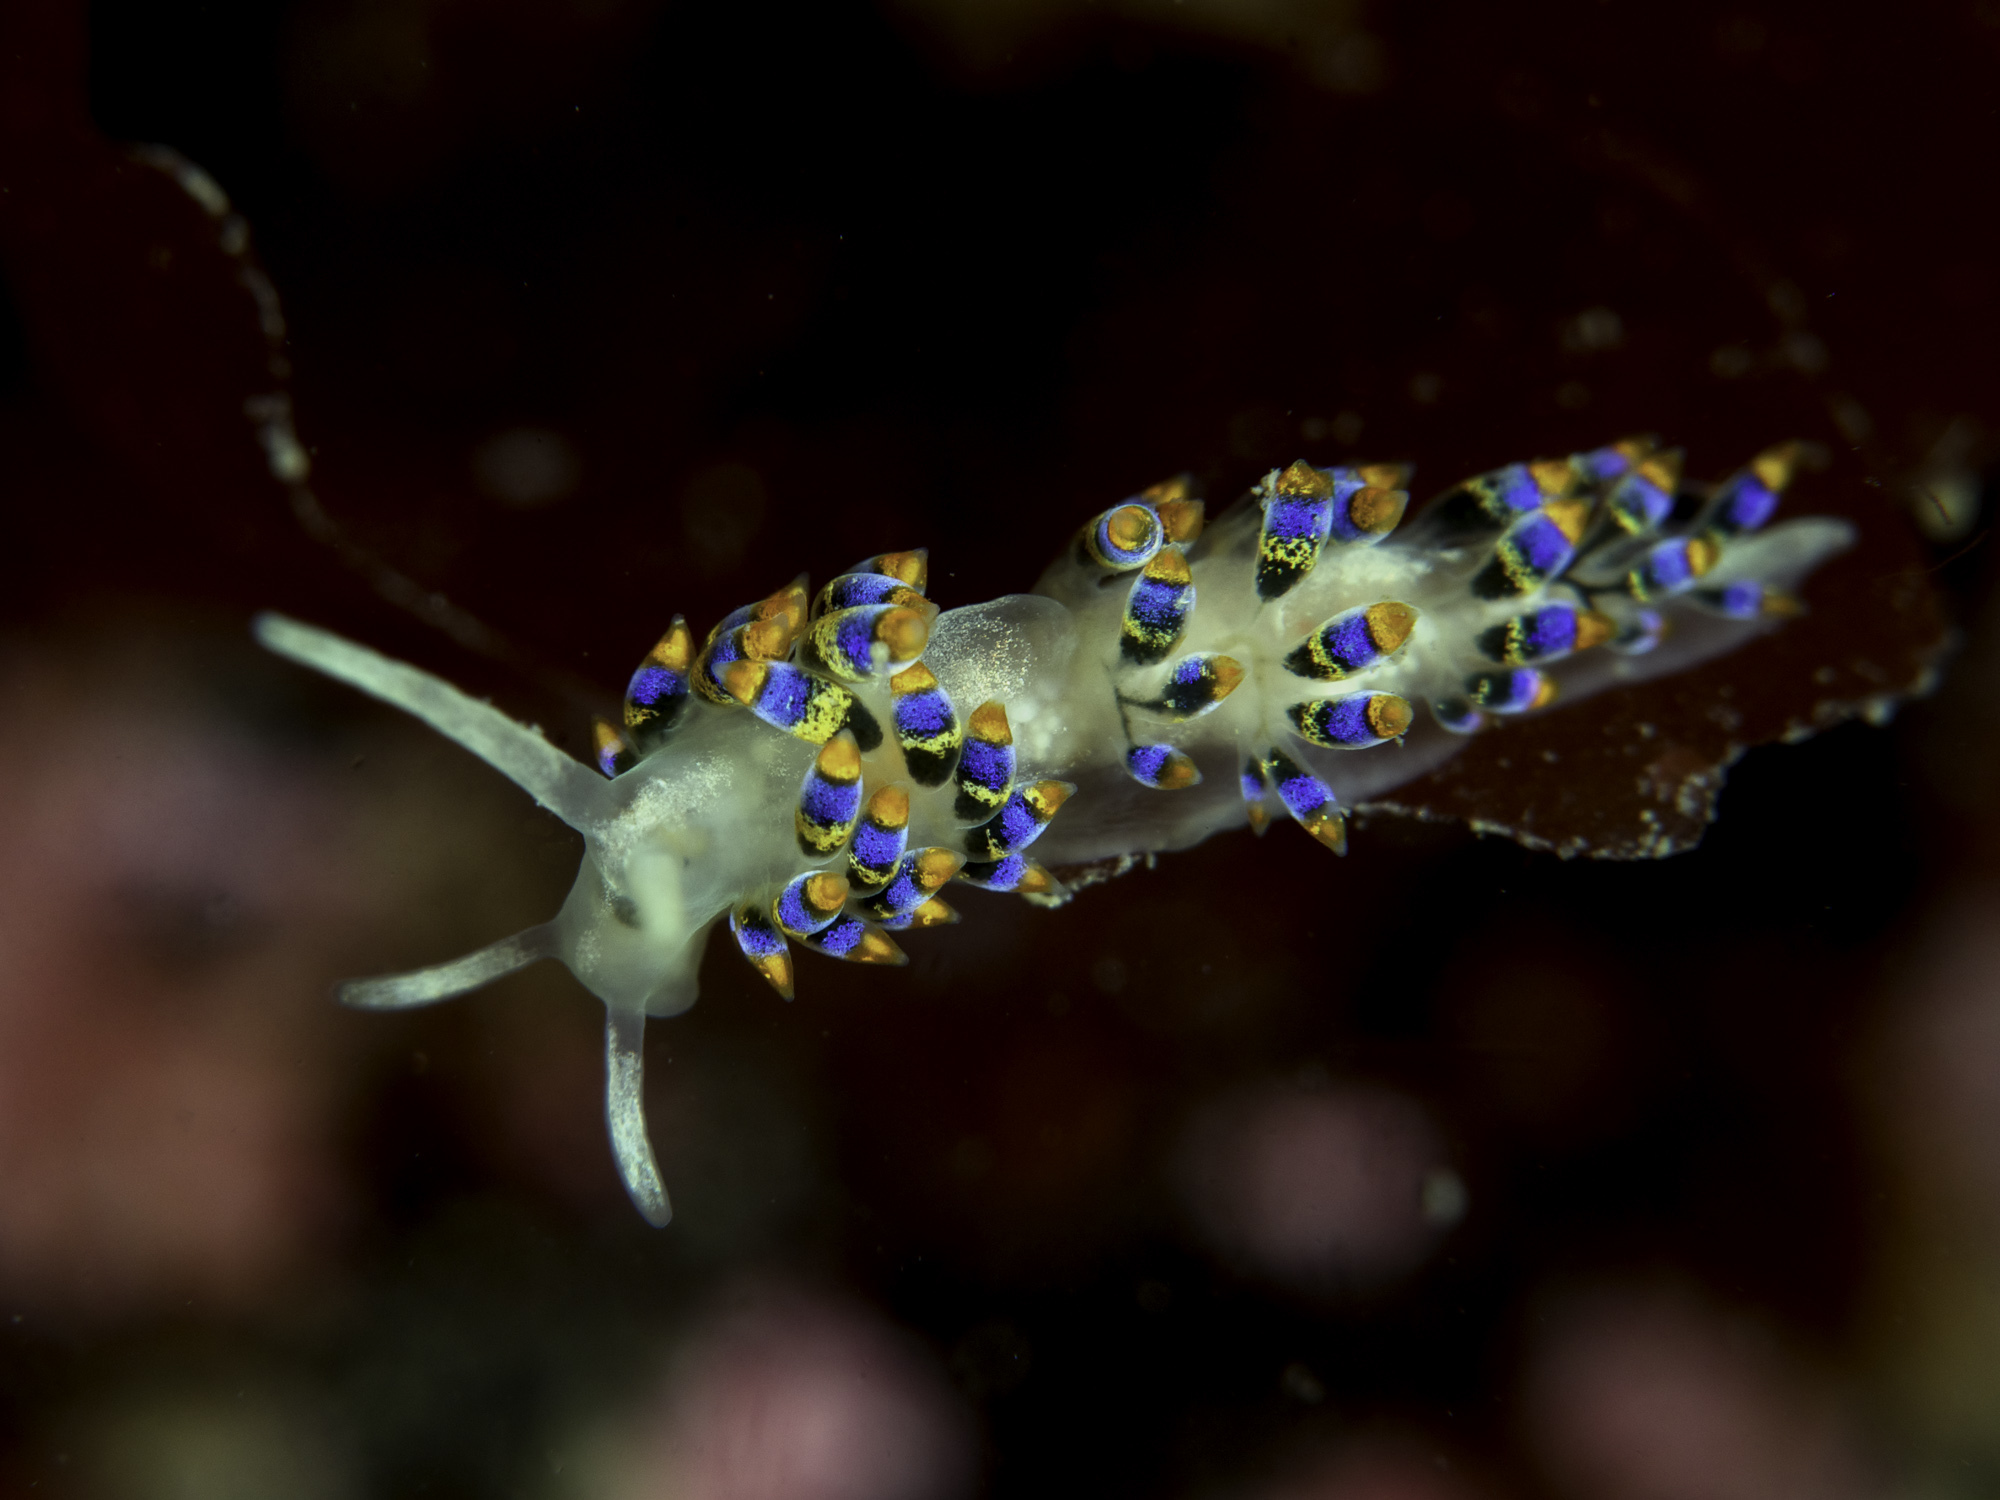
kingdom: Animalia
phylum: Mollusca
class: Gastropoda
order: Nudibranchia
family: Trinchesiidae
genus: Trinchesia
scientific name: Trinchesia cuanensis
